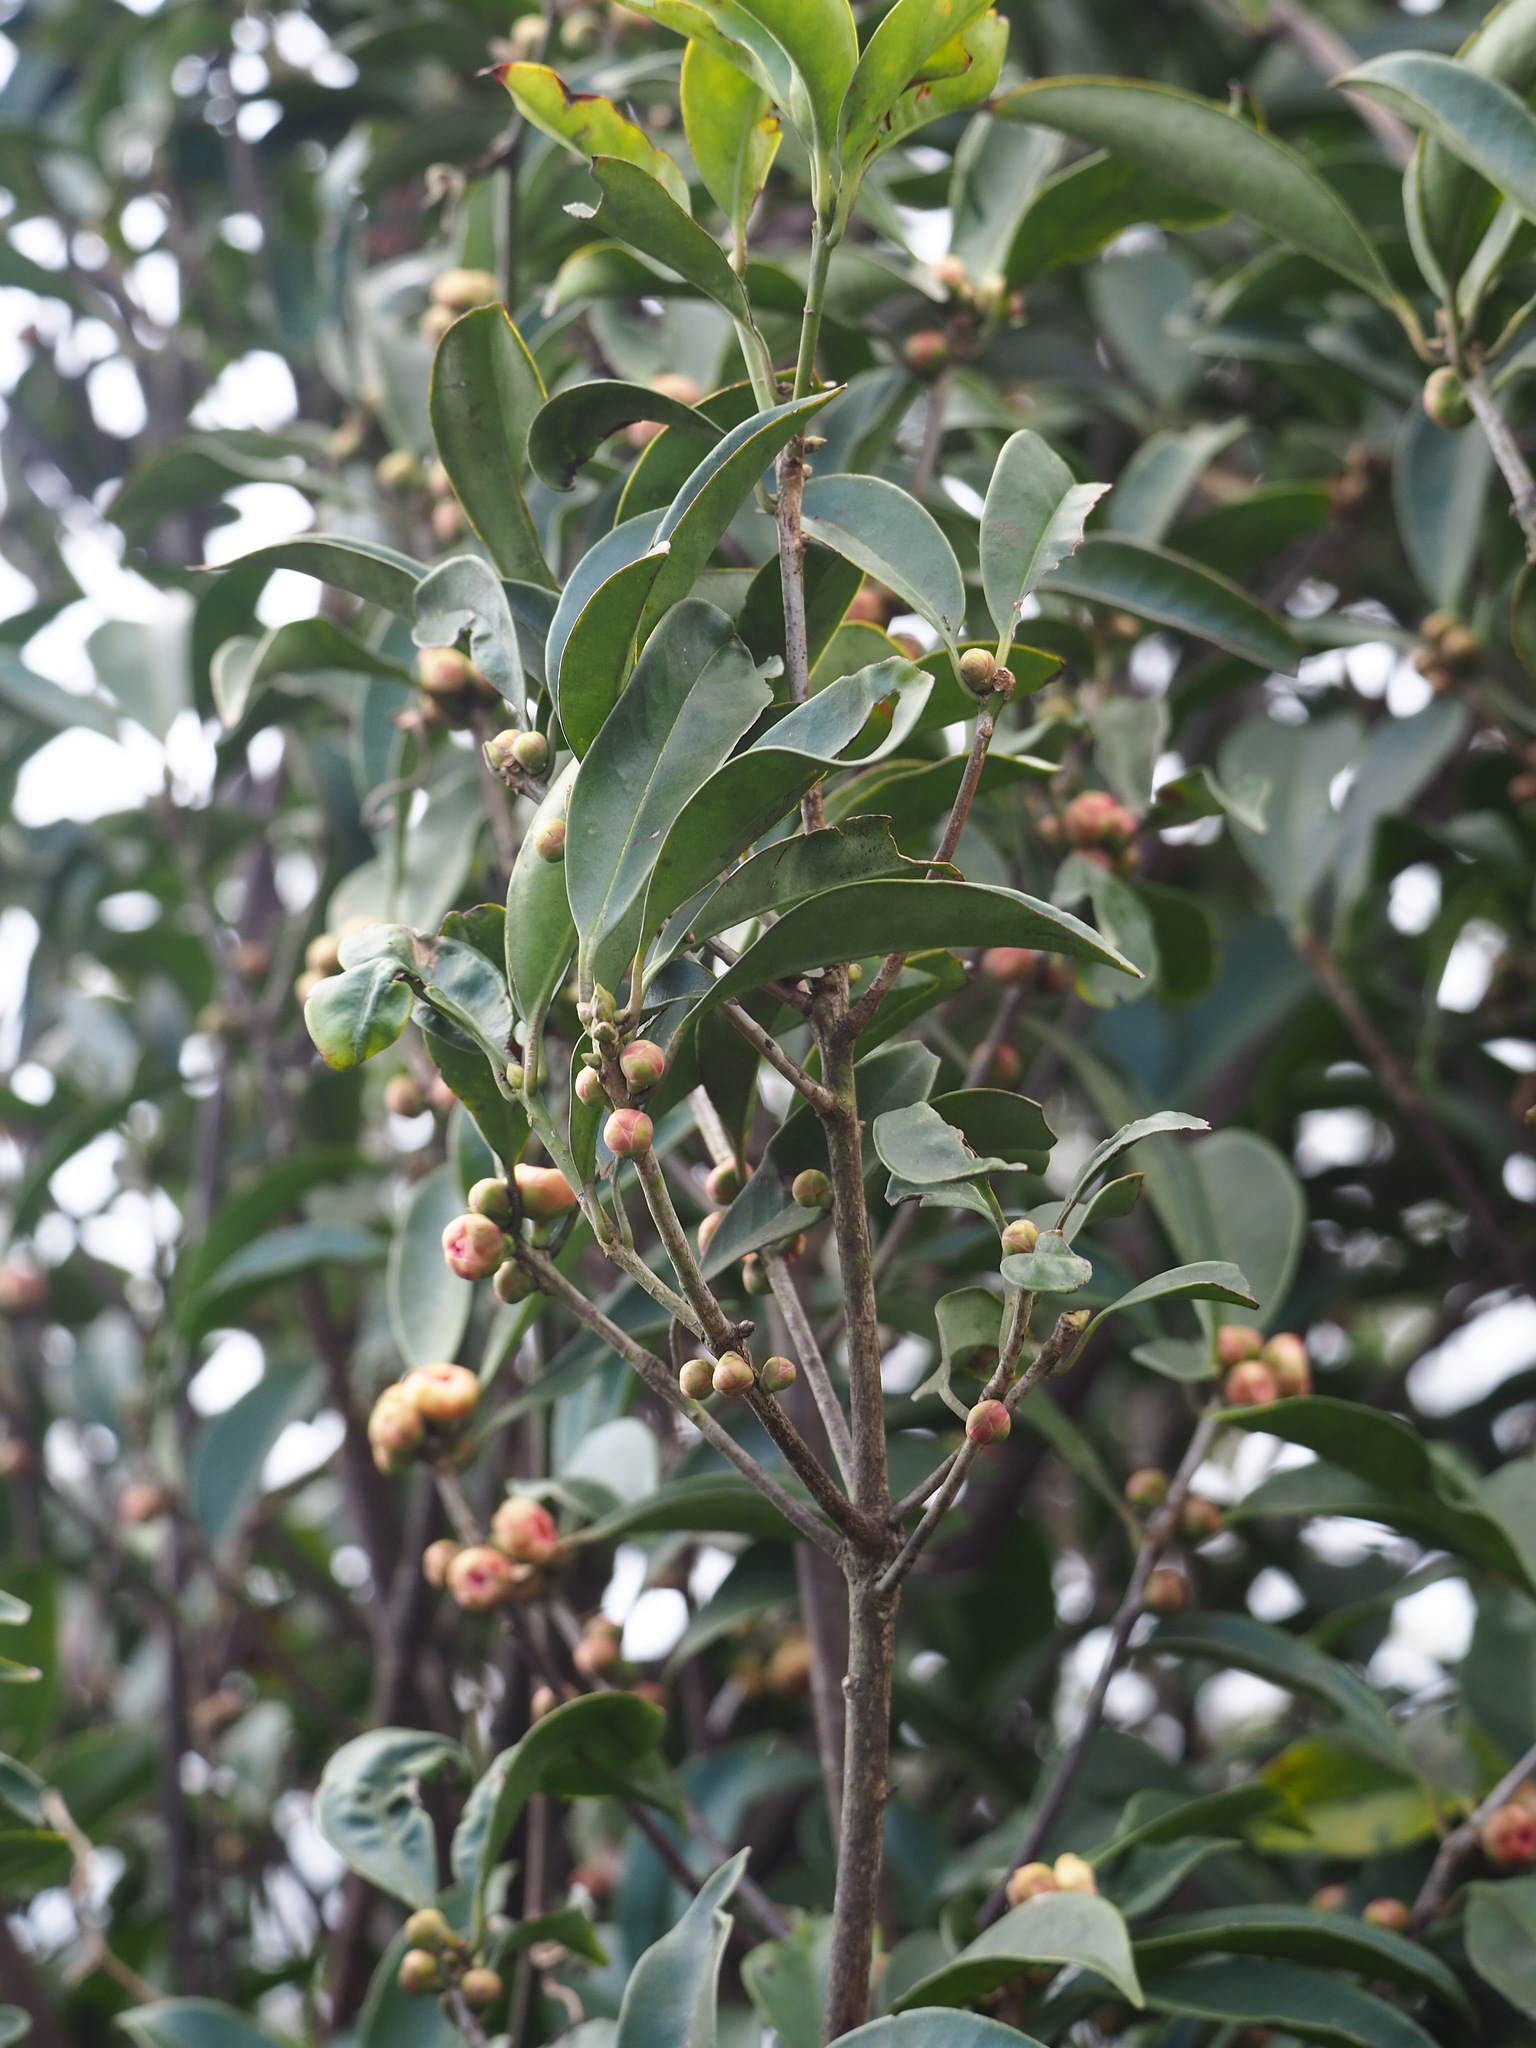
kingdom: Plantae
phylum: Tracheophyta
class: Magnoliopsida
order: Austrobaileyales
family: Schisandraceae
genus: Illicium
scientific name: Illicium arborescens
